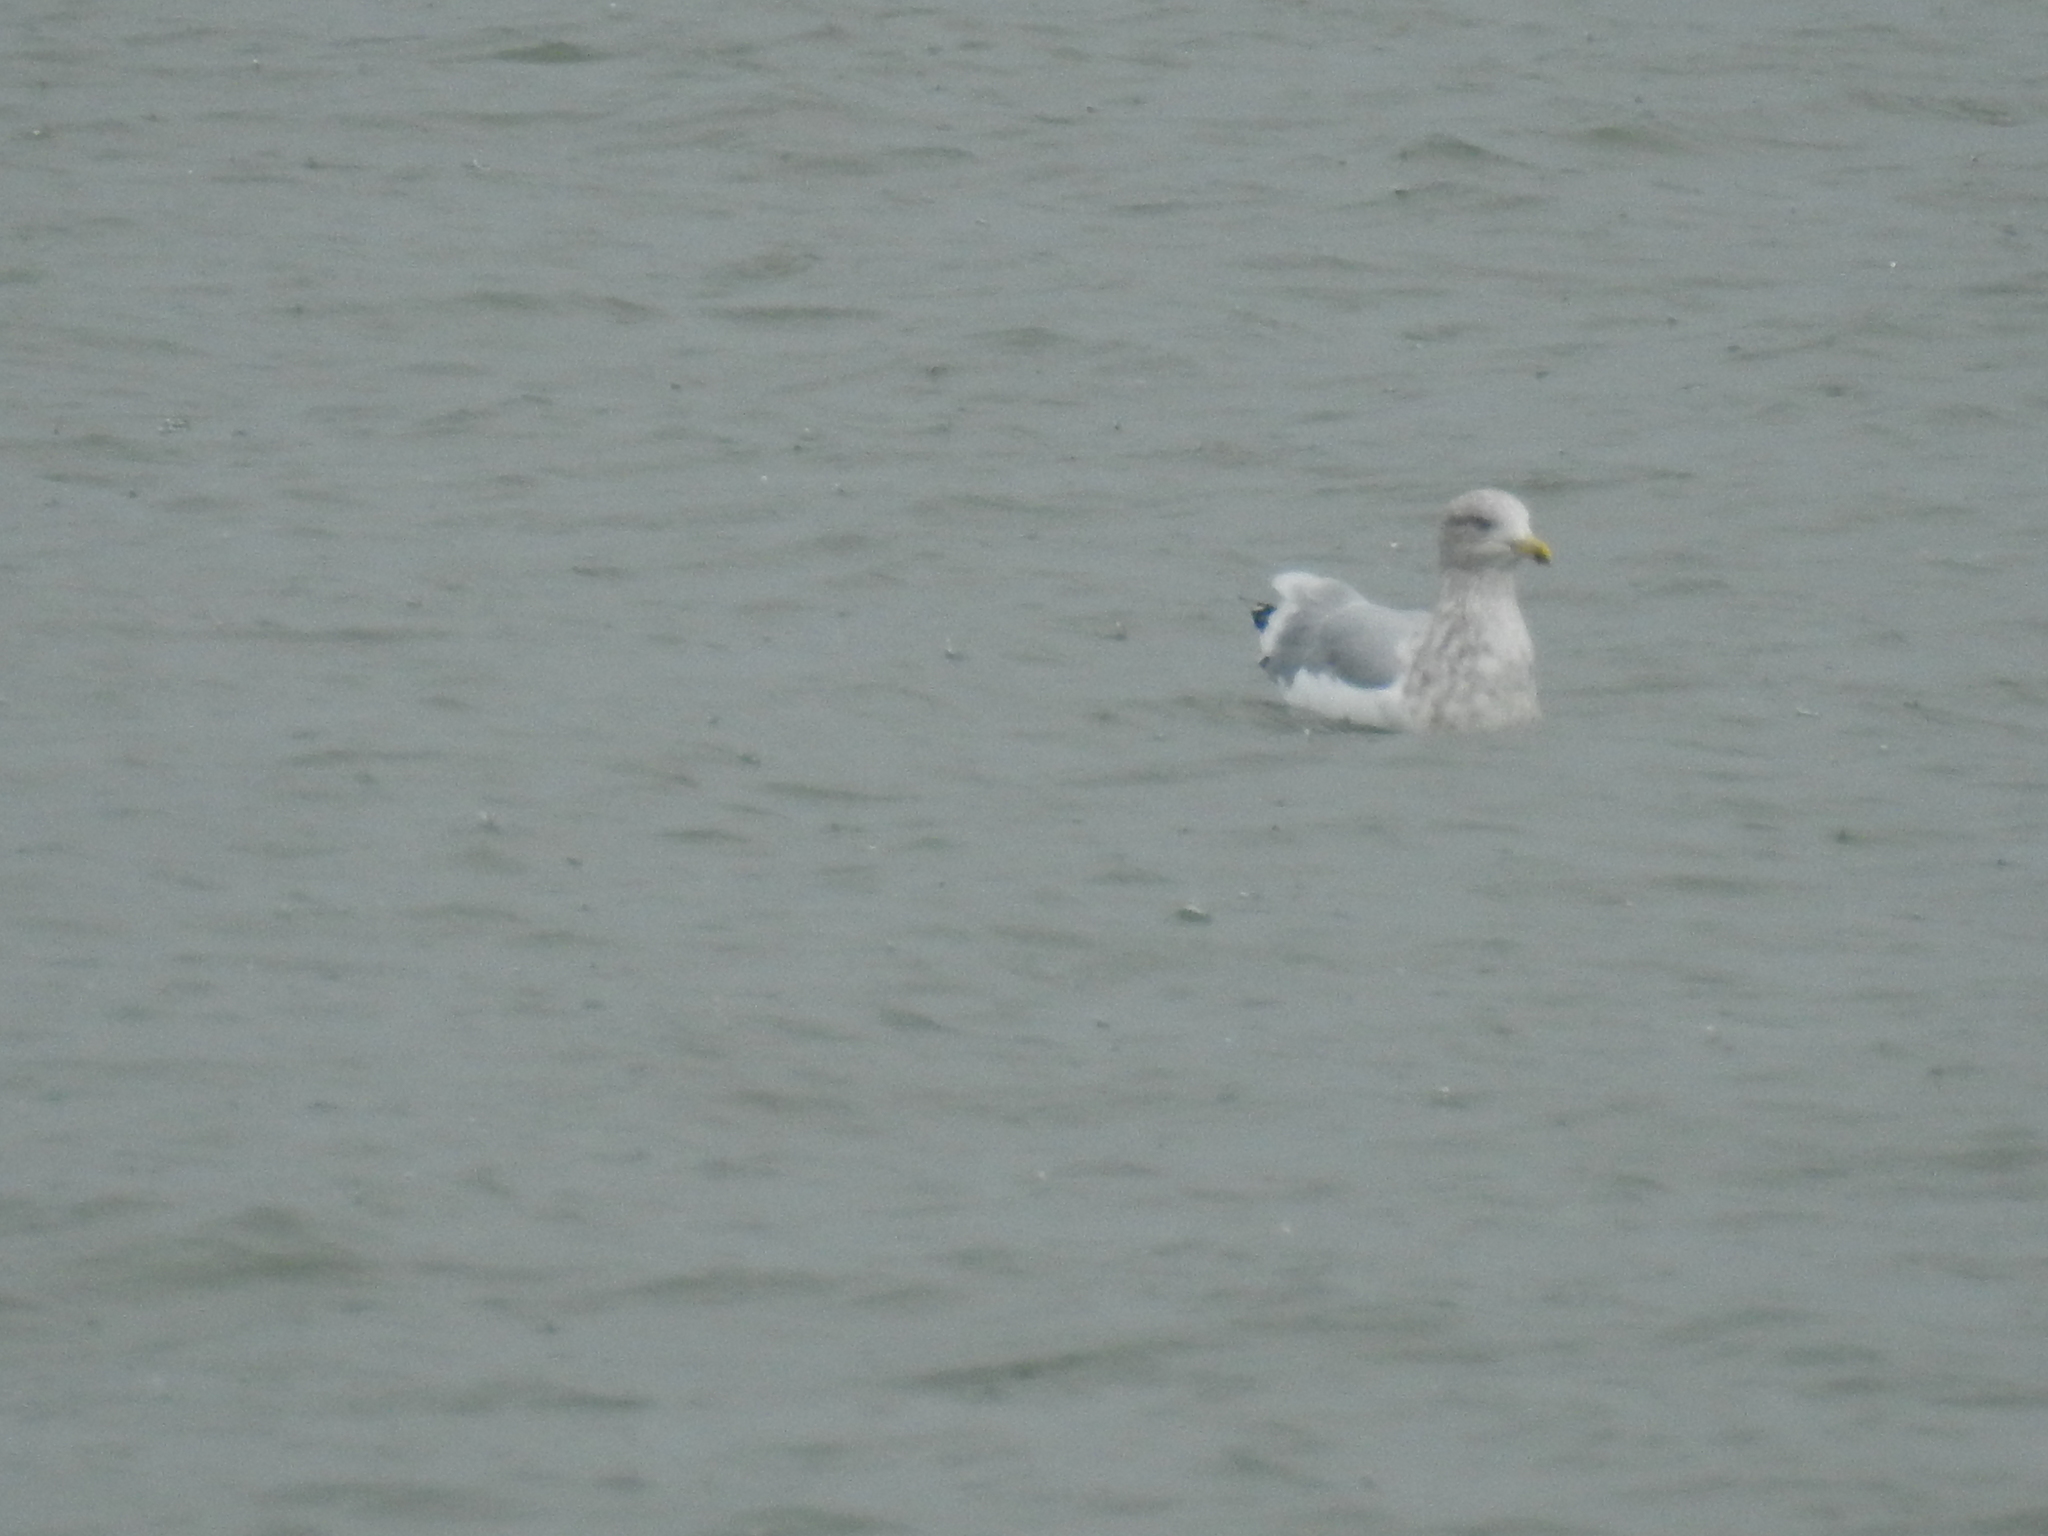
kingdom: Animalia
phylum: Chordata
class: Aves
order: Charadriiformes
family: Laridae
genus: Larus
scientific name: Larus argentatus
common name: Herring gull
